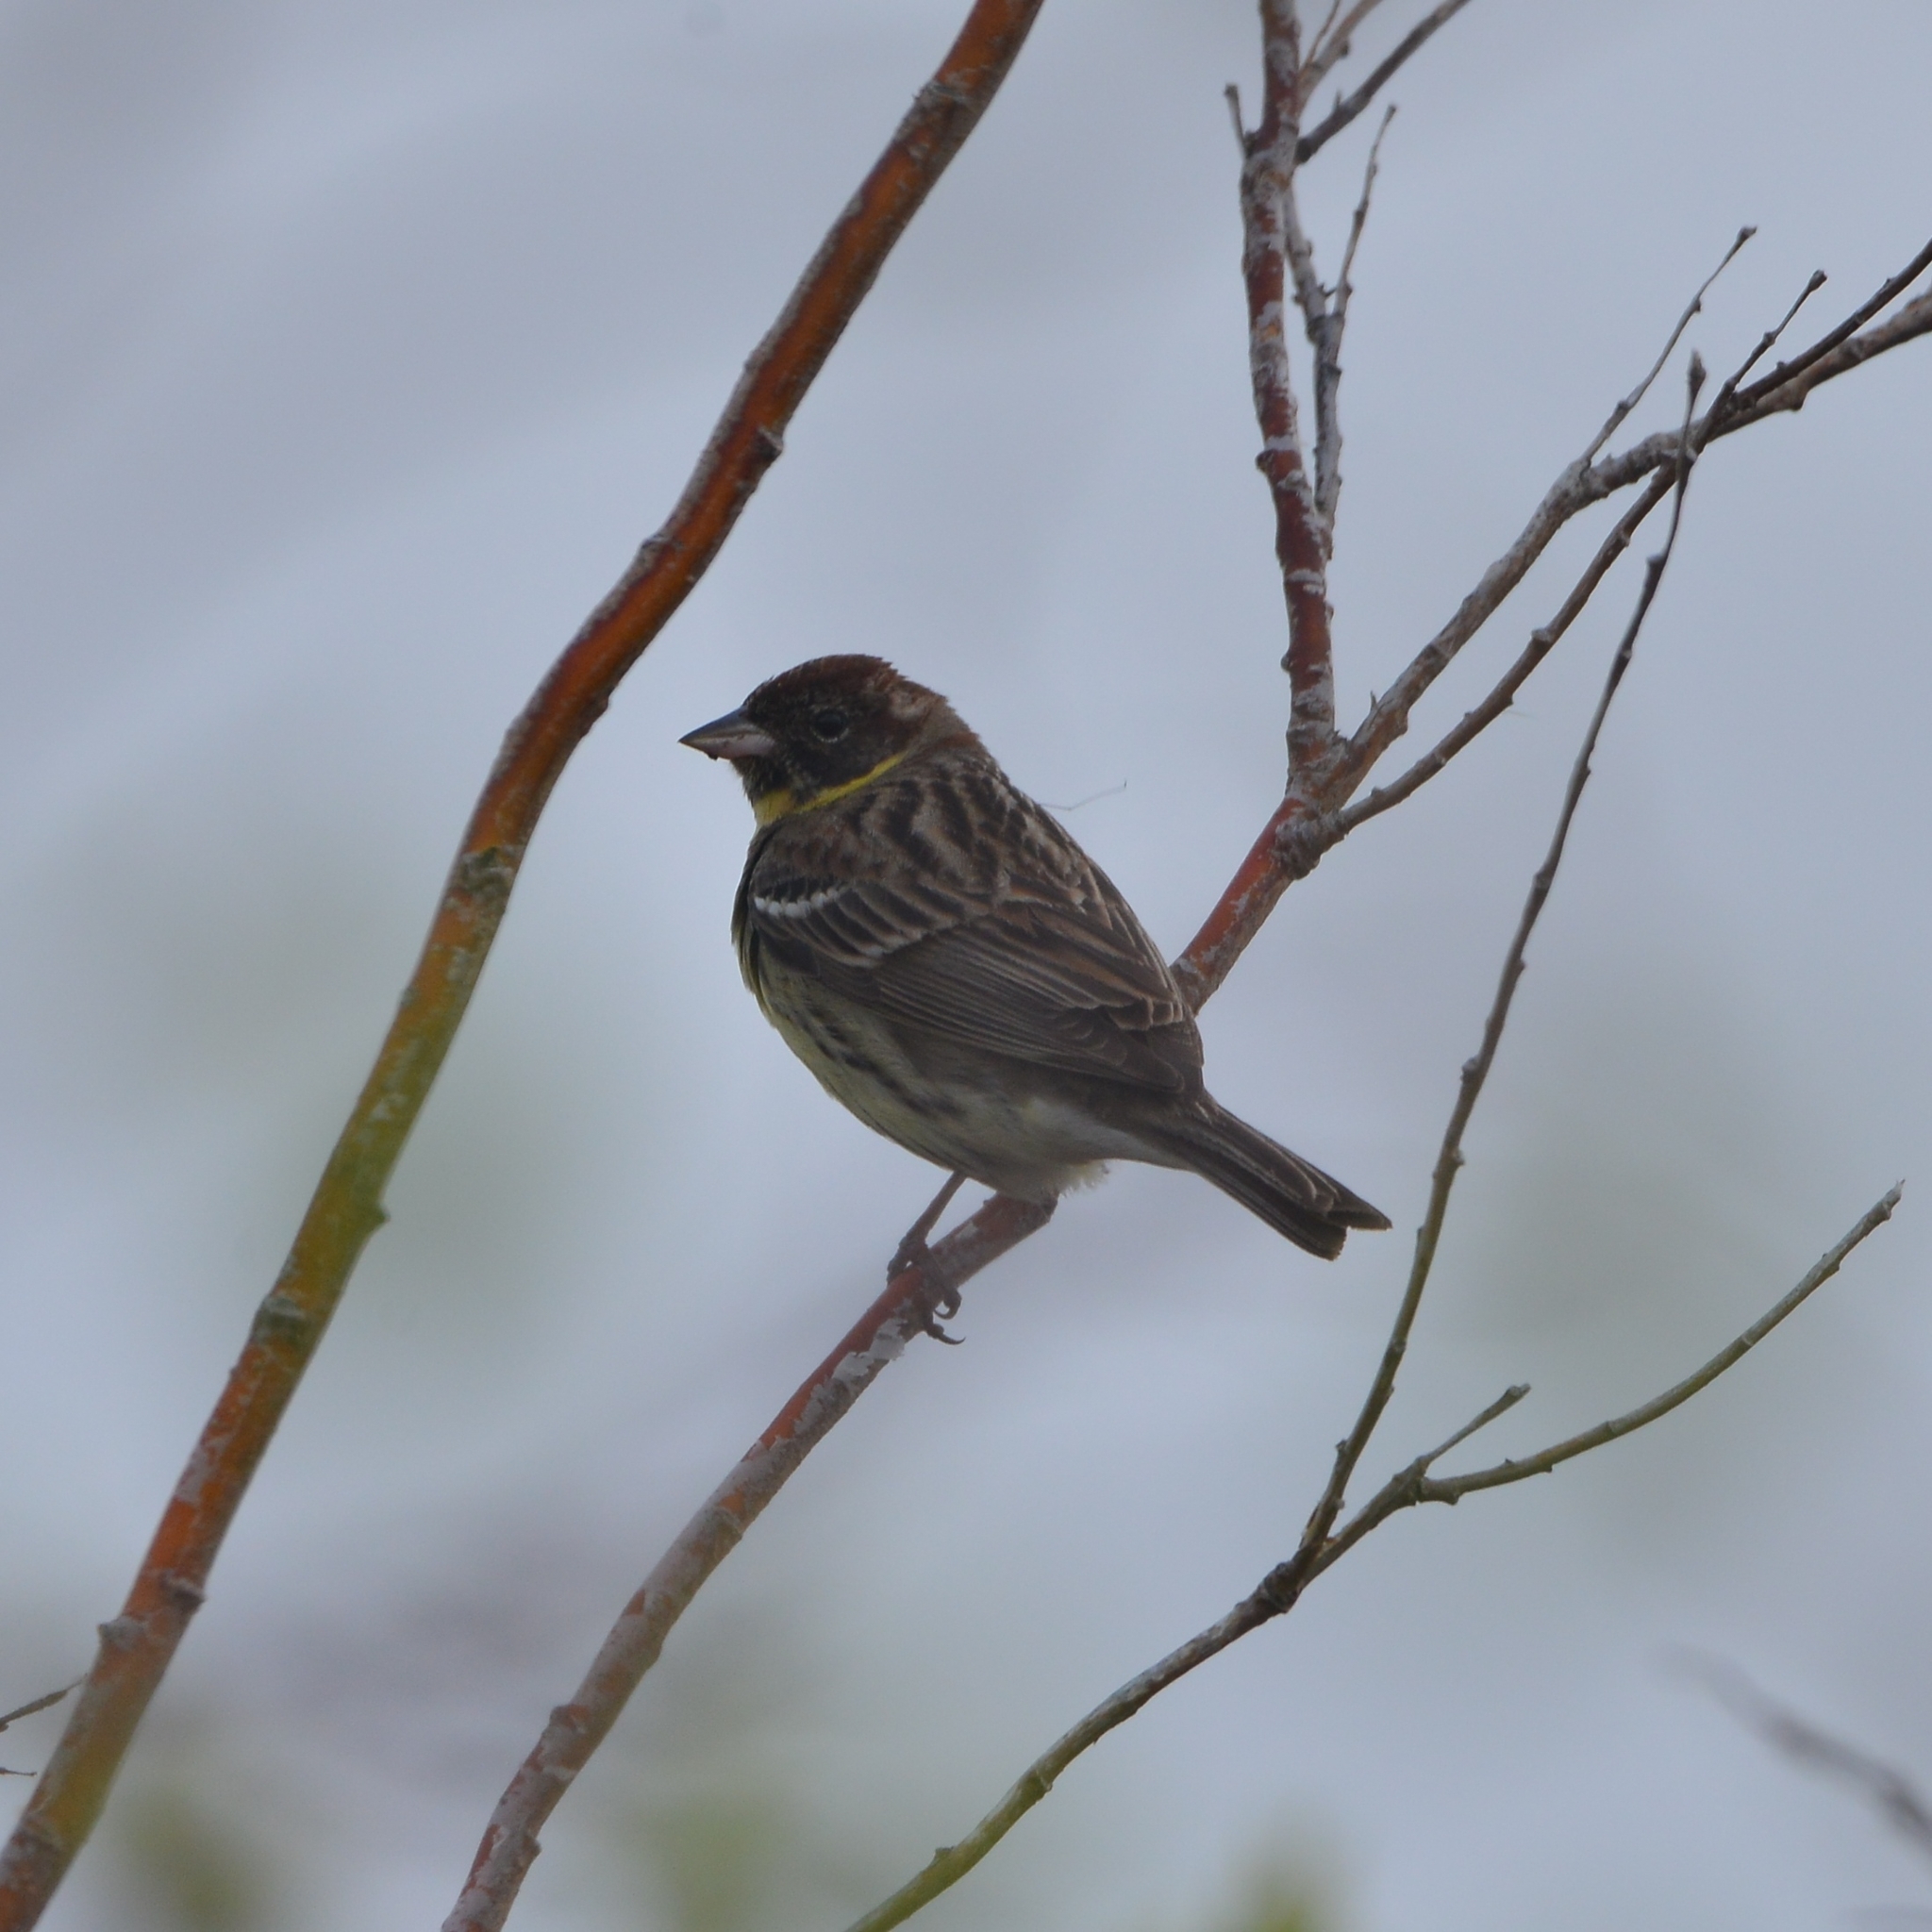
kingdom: Animalia
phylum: Chordata
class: Aves
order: Passeriformes
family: Emberizidae
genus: Emberiza
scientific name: Emberiza aureola
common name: Yellow-breasted bunting
